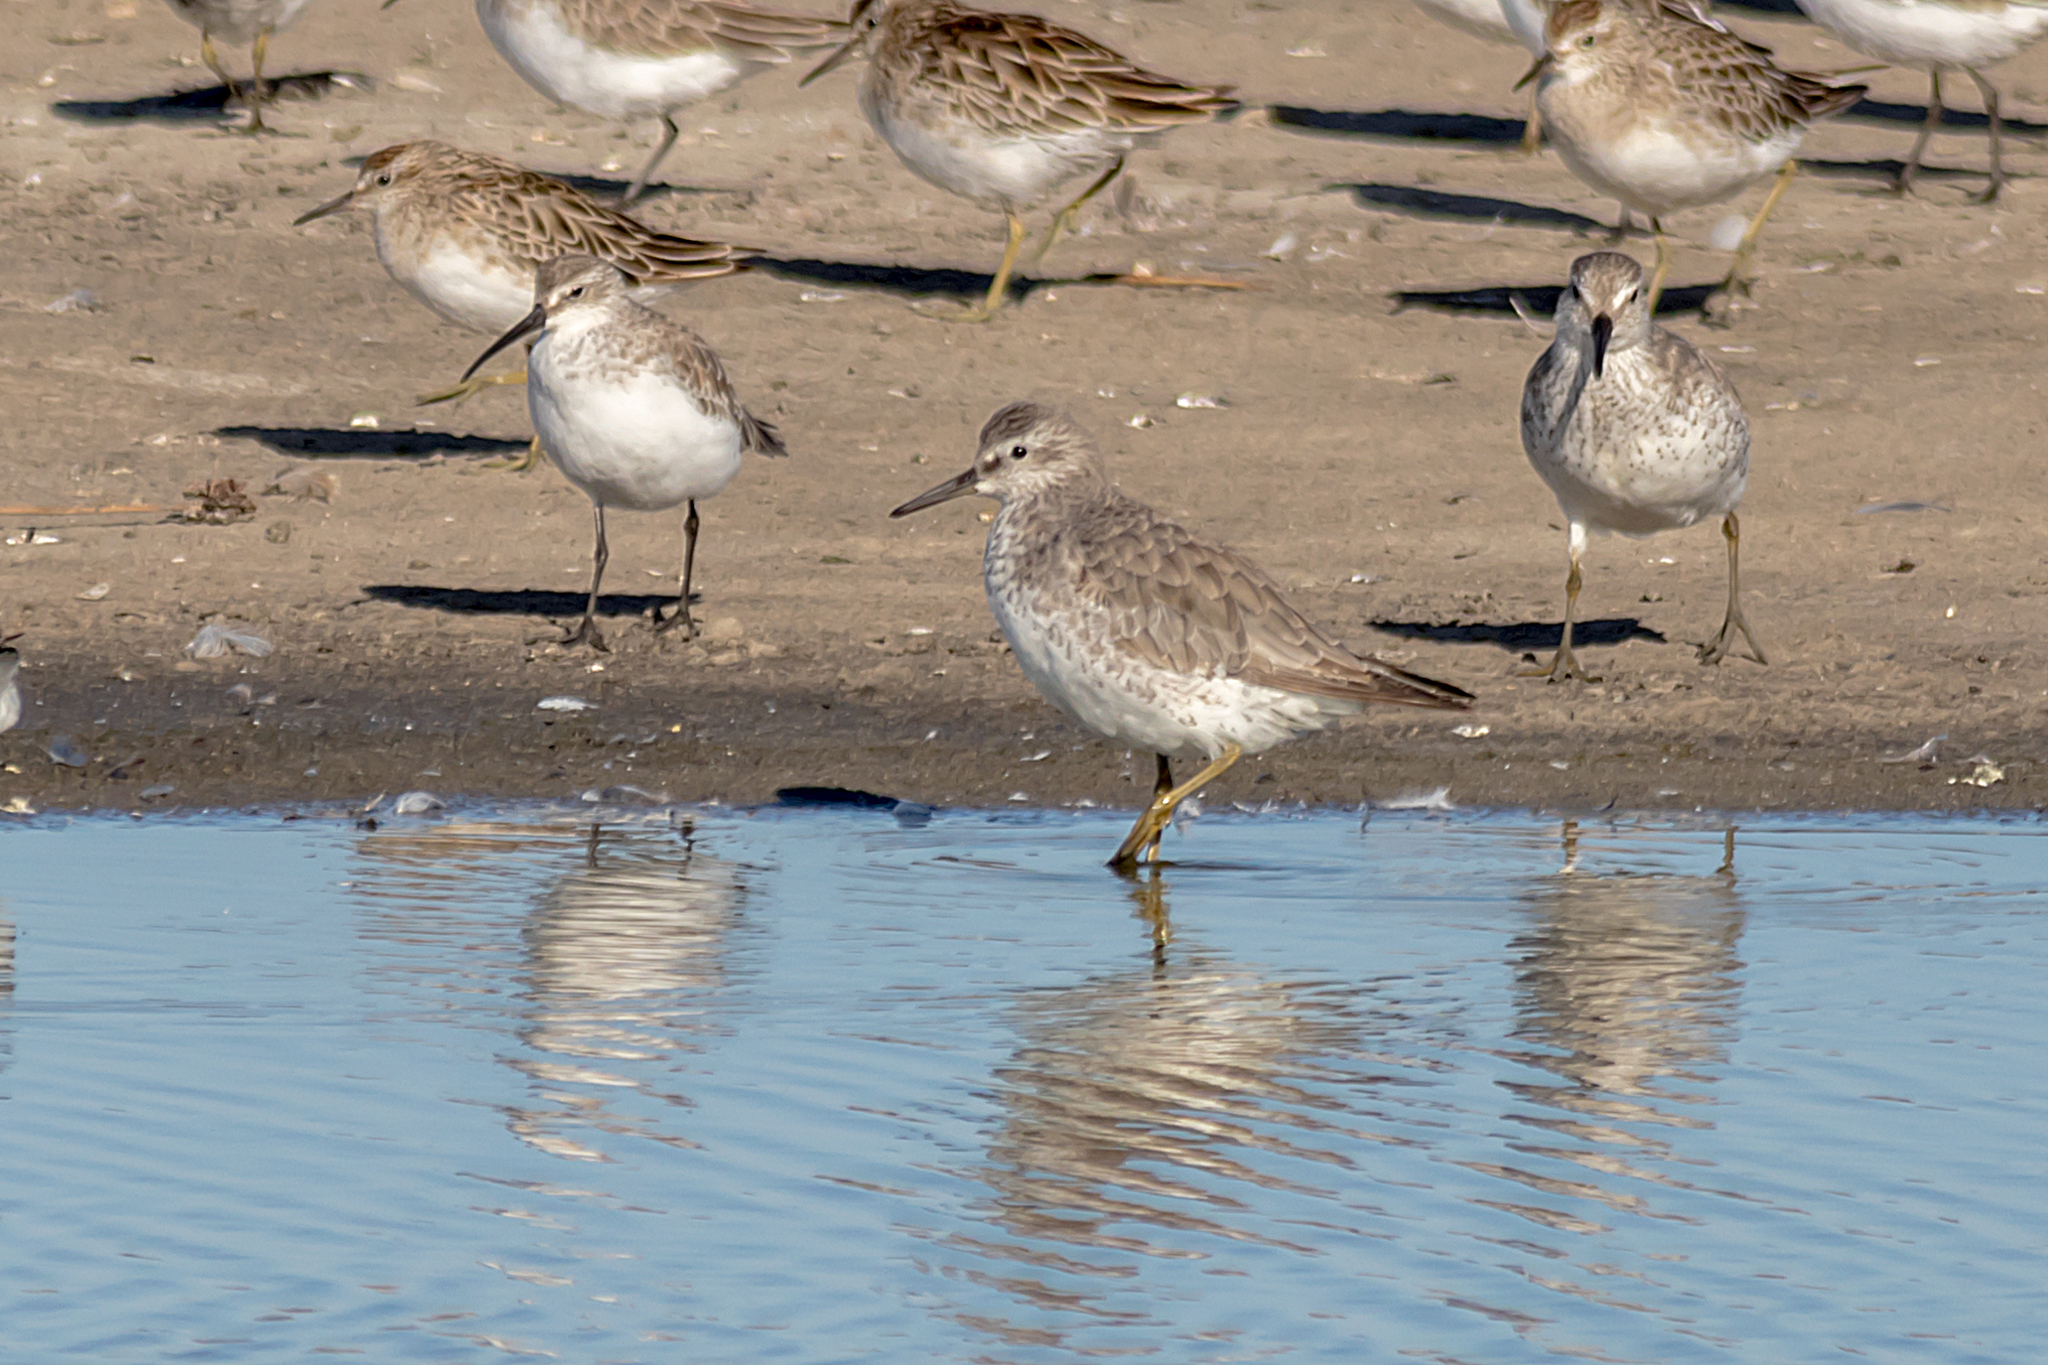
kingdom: Animalia
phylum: Chordata
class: Aves
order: Charadriiformes
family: Scolopacidae
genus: Calidris
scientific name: Calidris canutus
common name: Red knot
